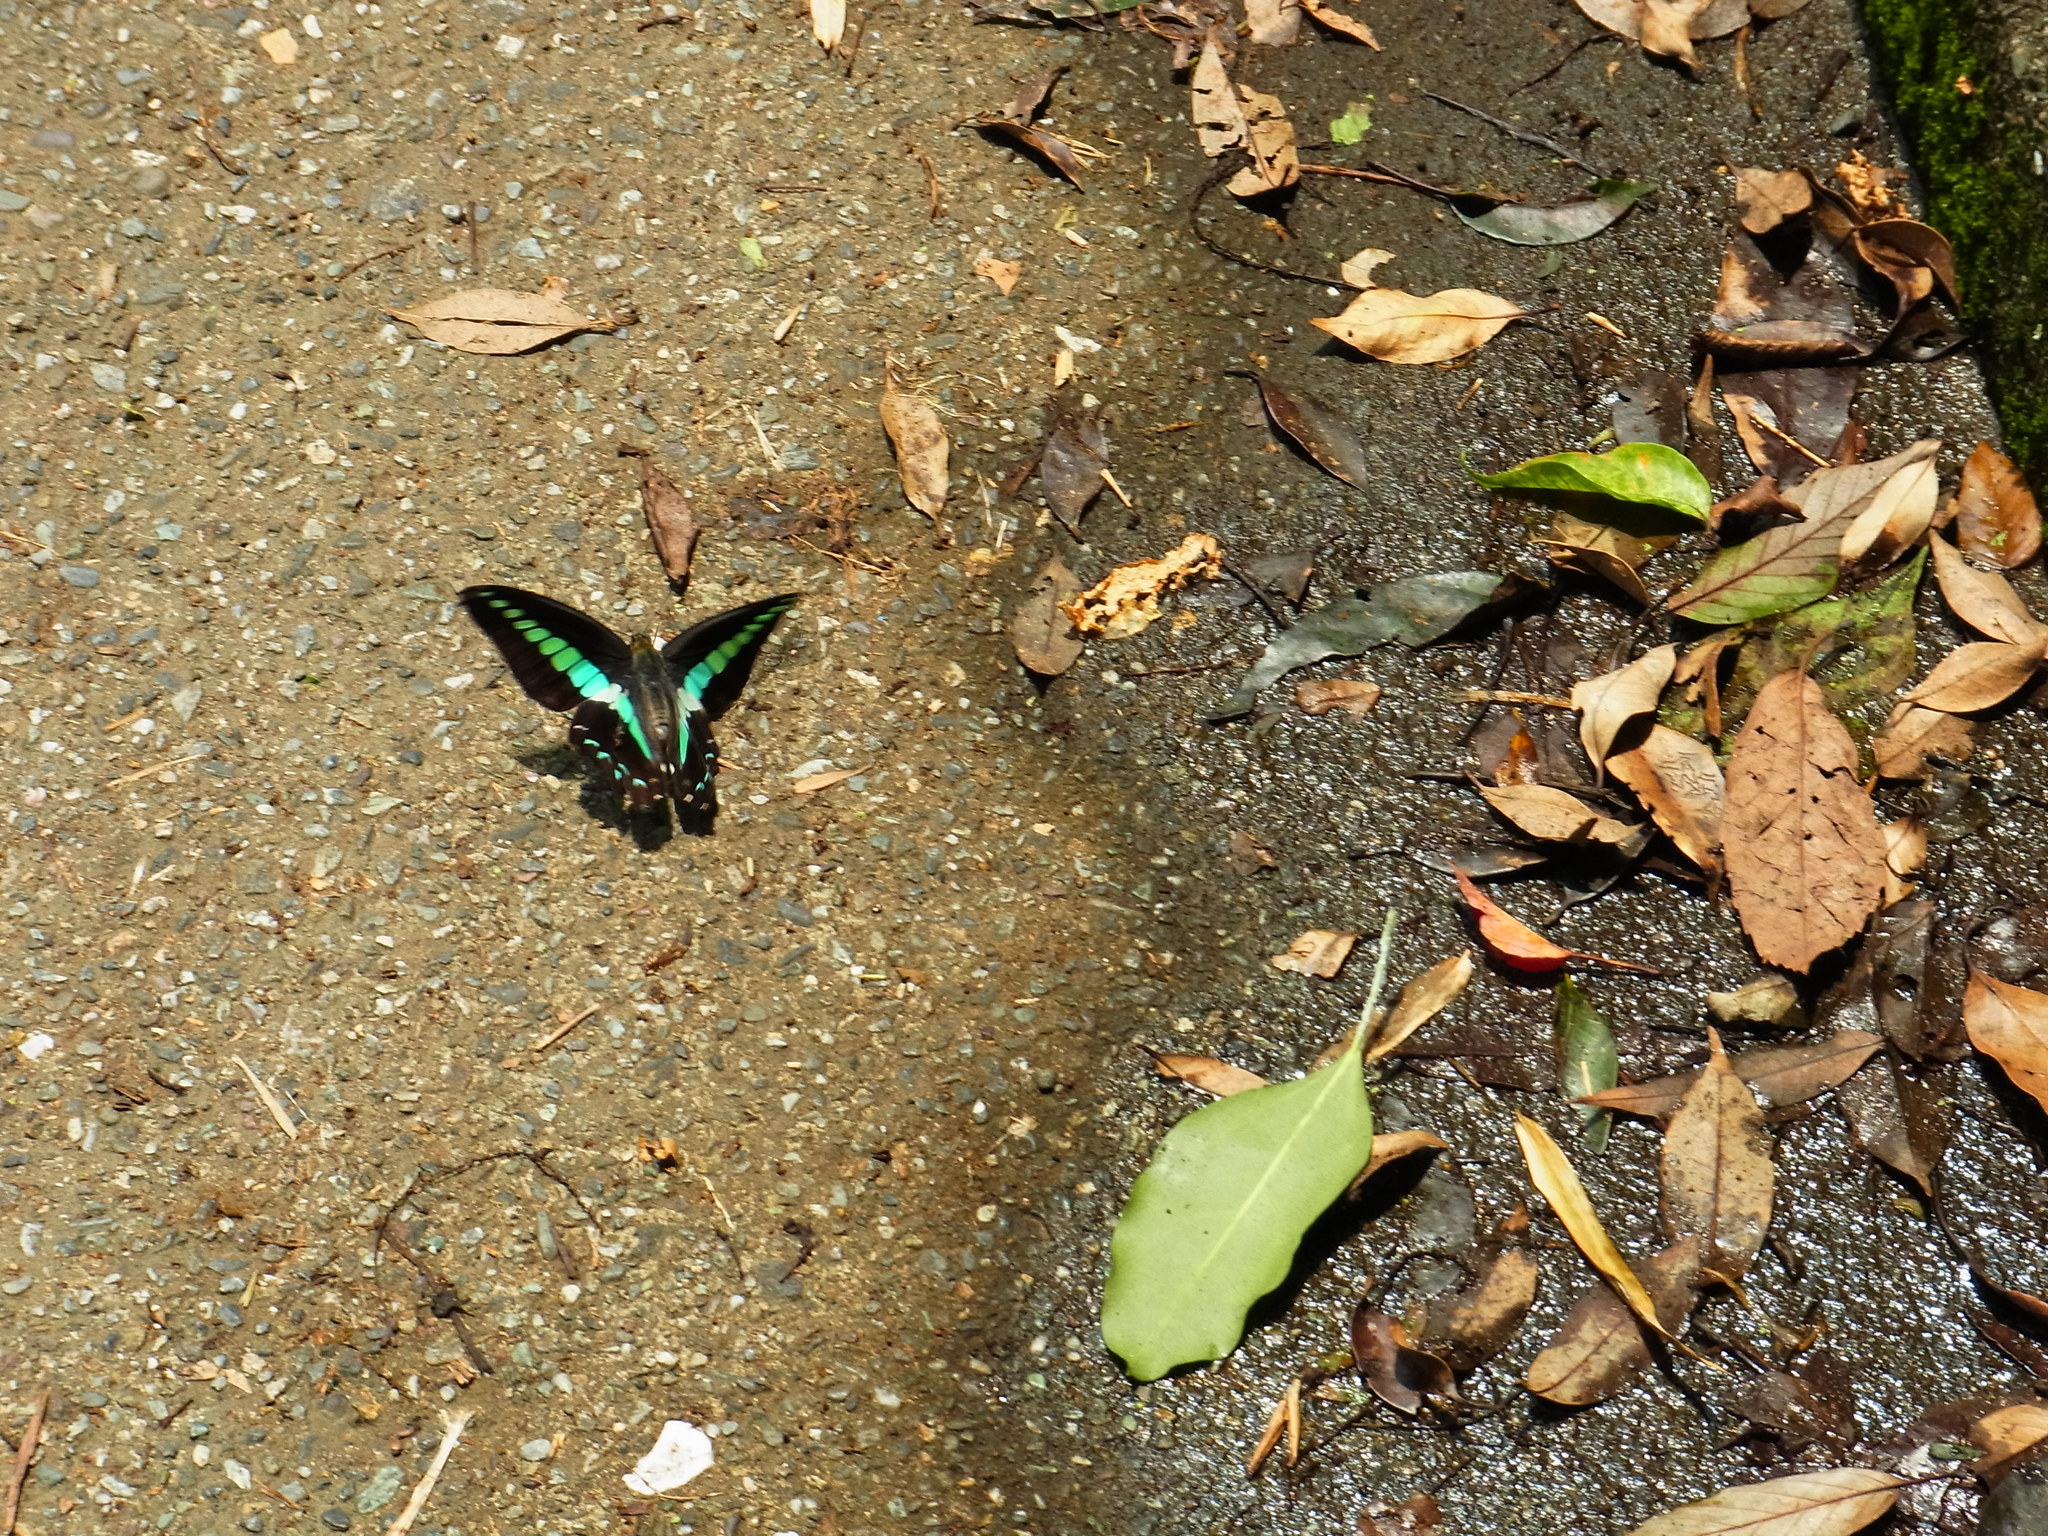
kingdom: Fungi
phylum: Ascomycota
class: Sordariomycetes
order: Microascales
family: Microascaceae
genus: Graphium
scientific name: Graphium sarpedon
